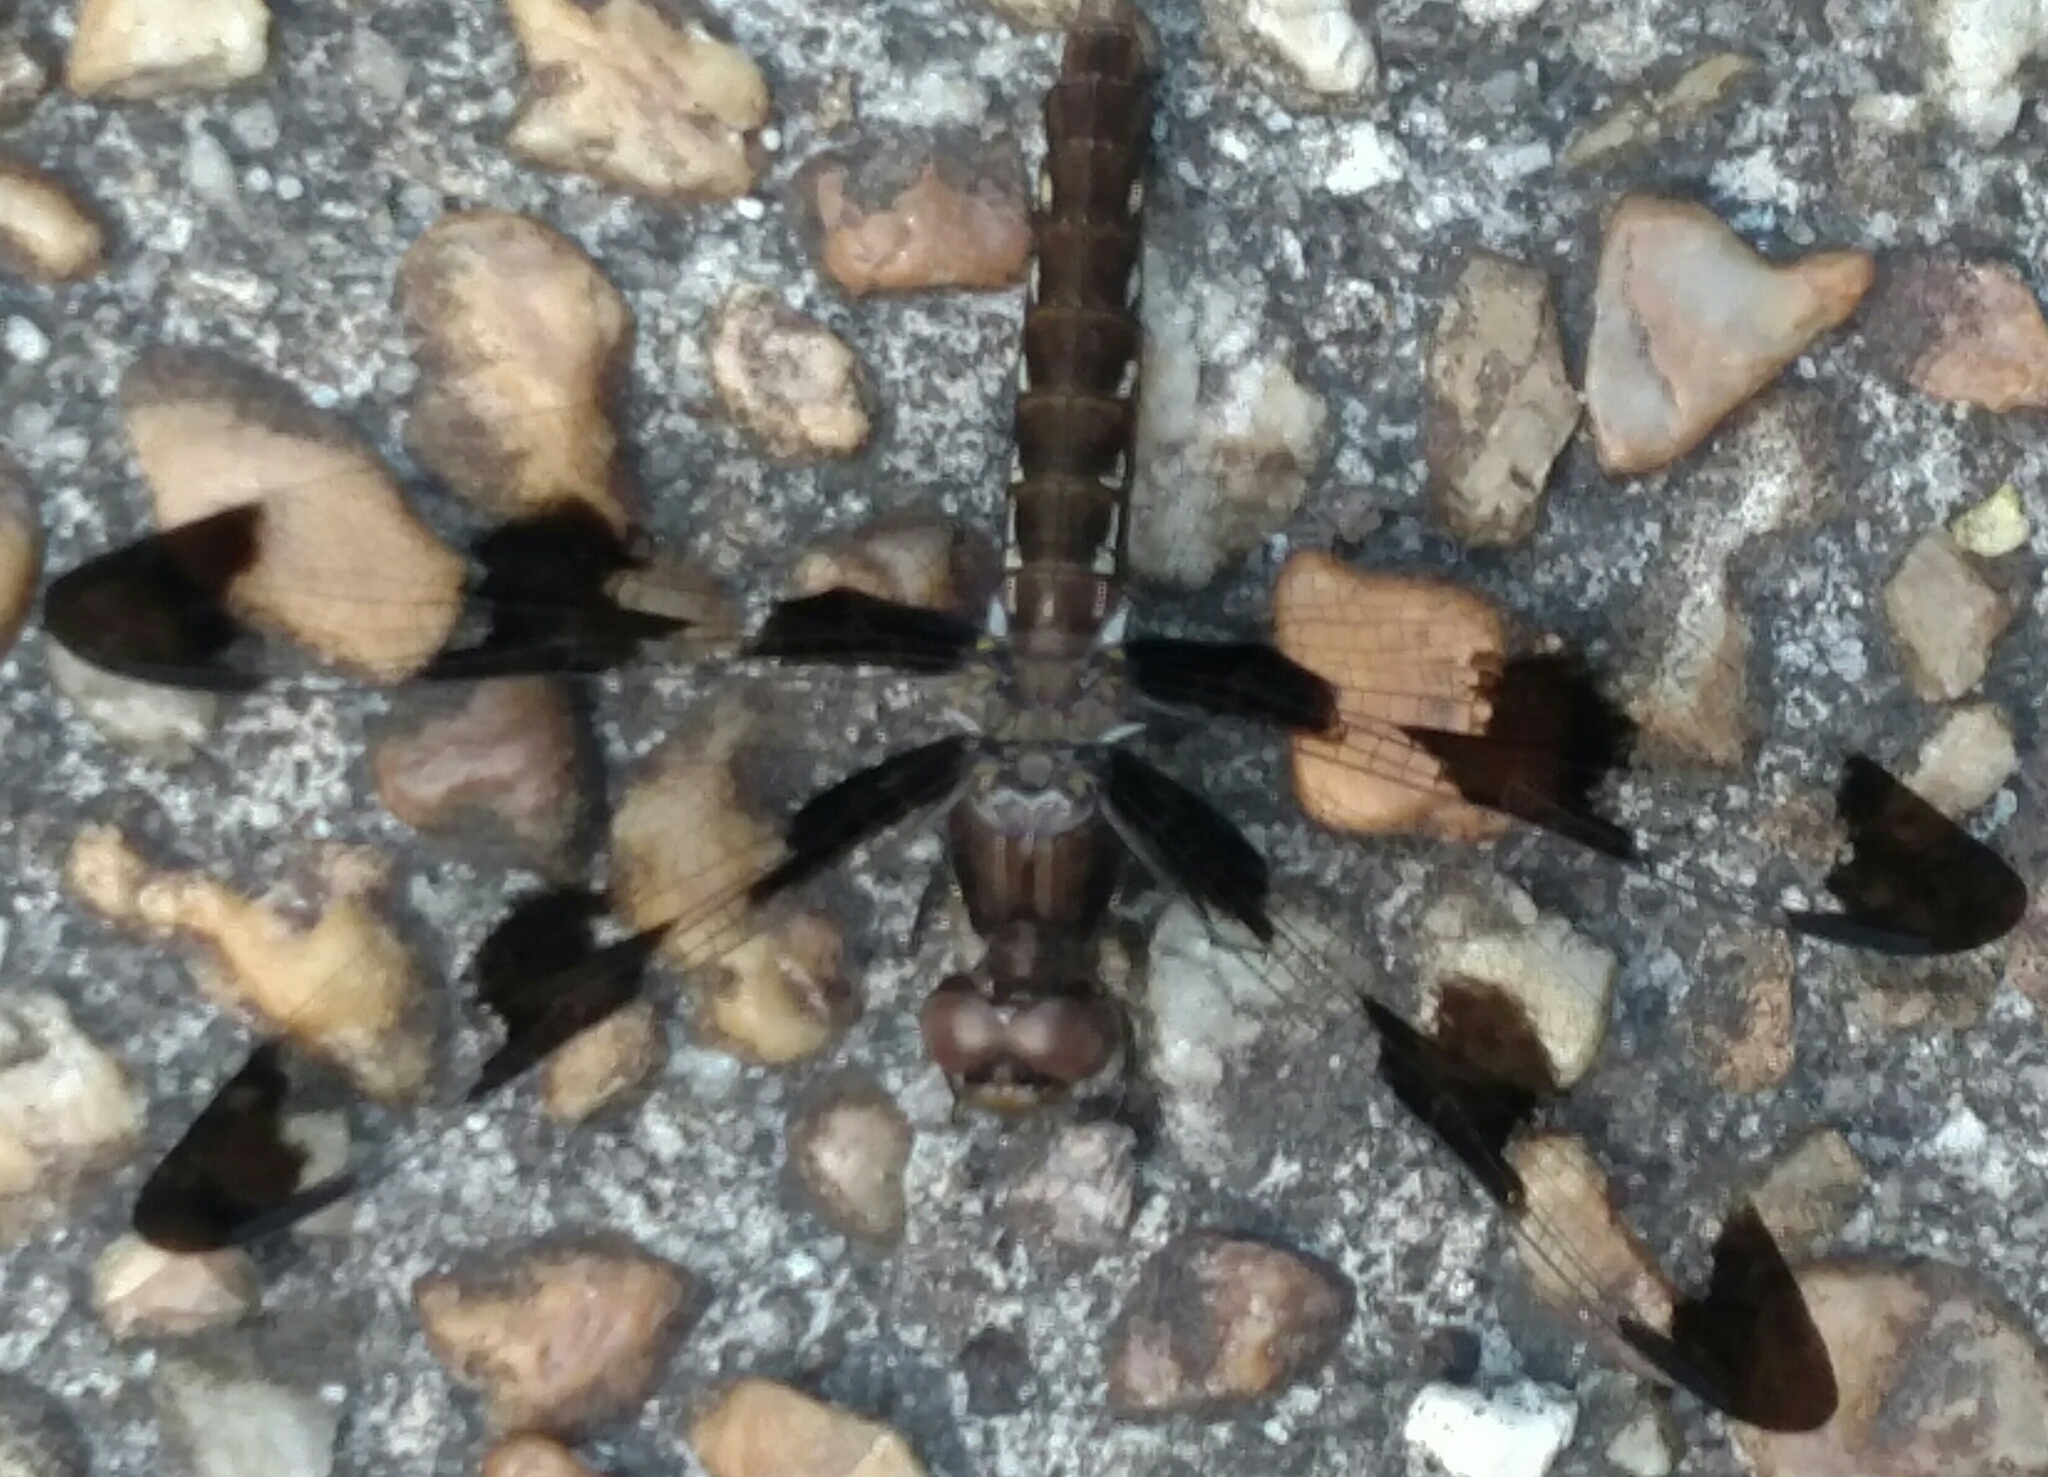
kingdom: Animalia
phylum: Arthropoda
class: Insecta
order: Odonata
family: Libellulidae
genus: Plathemis
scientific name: Plathemis lydia
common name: Common whitetail
